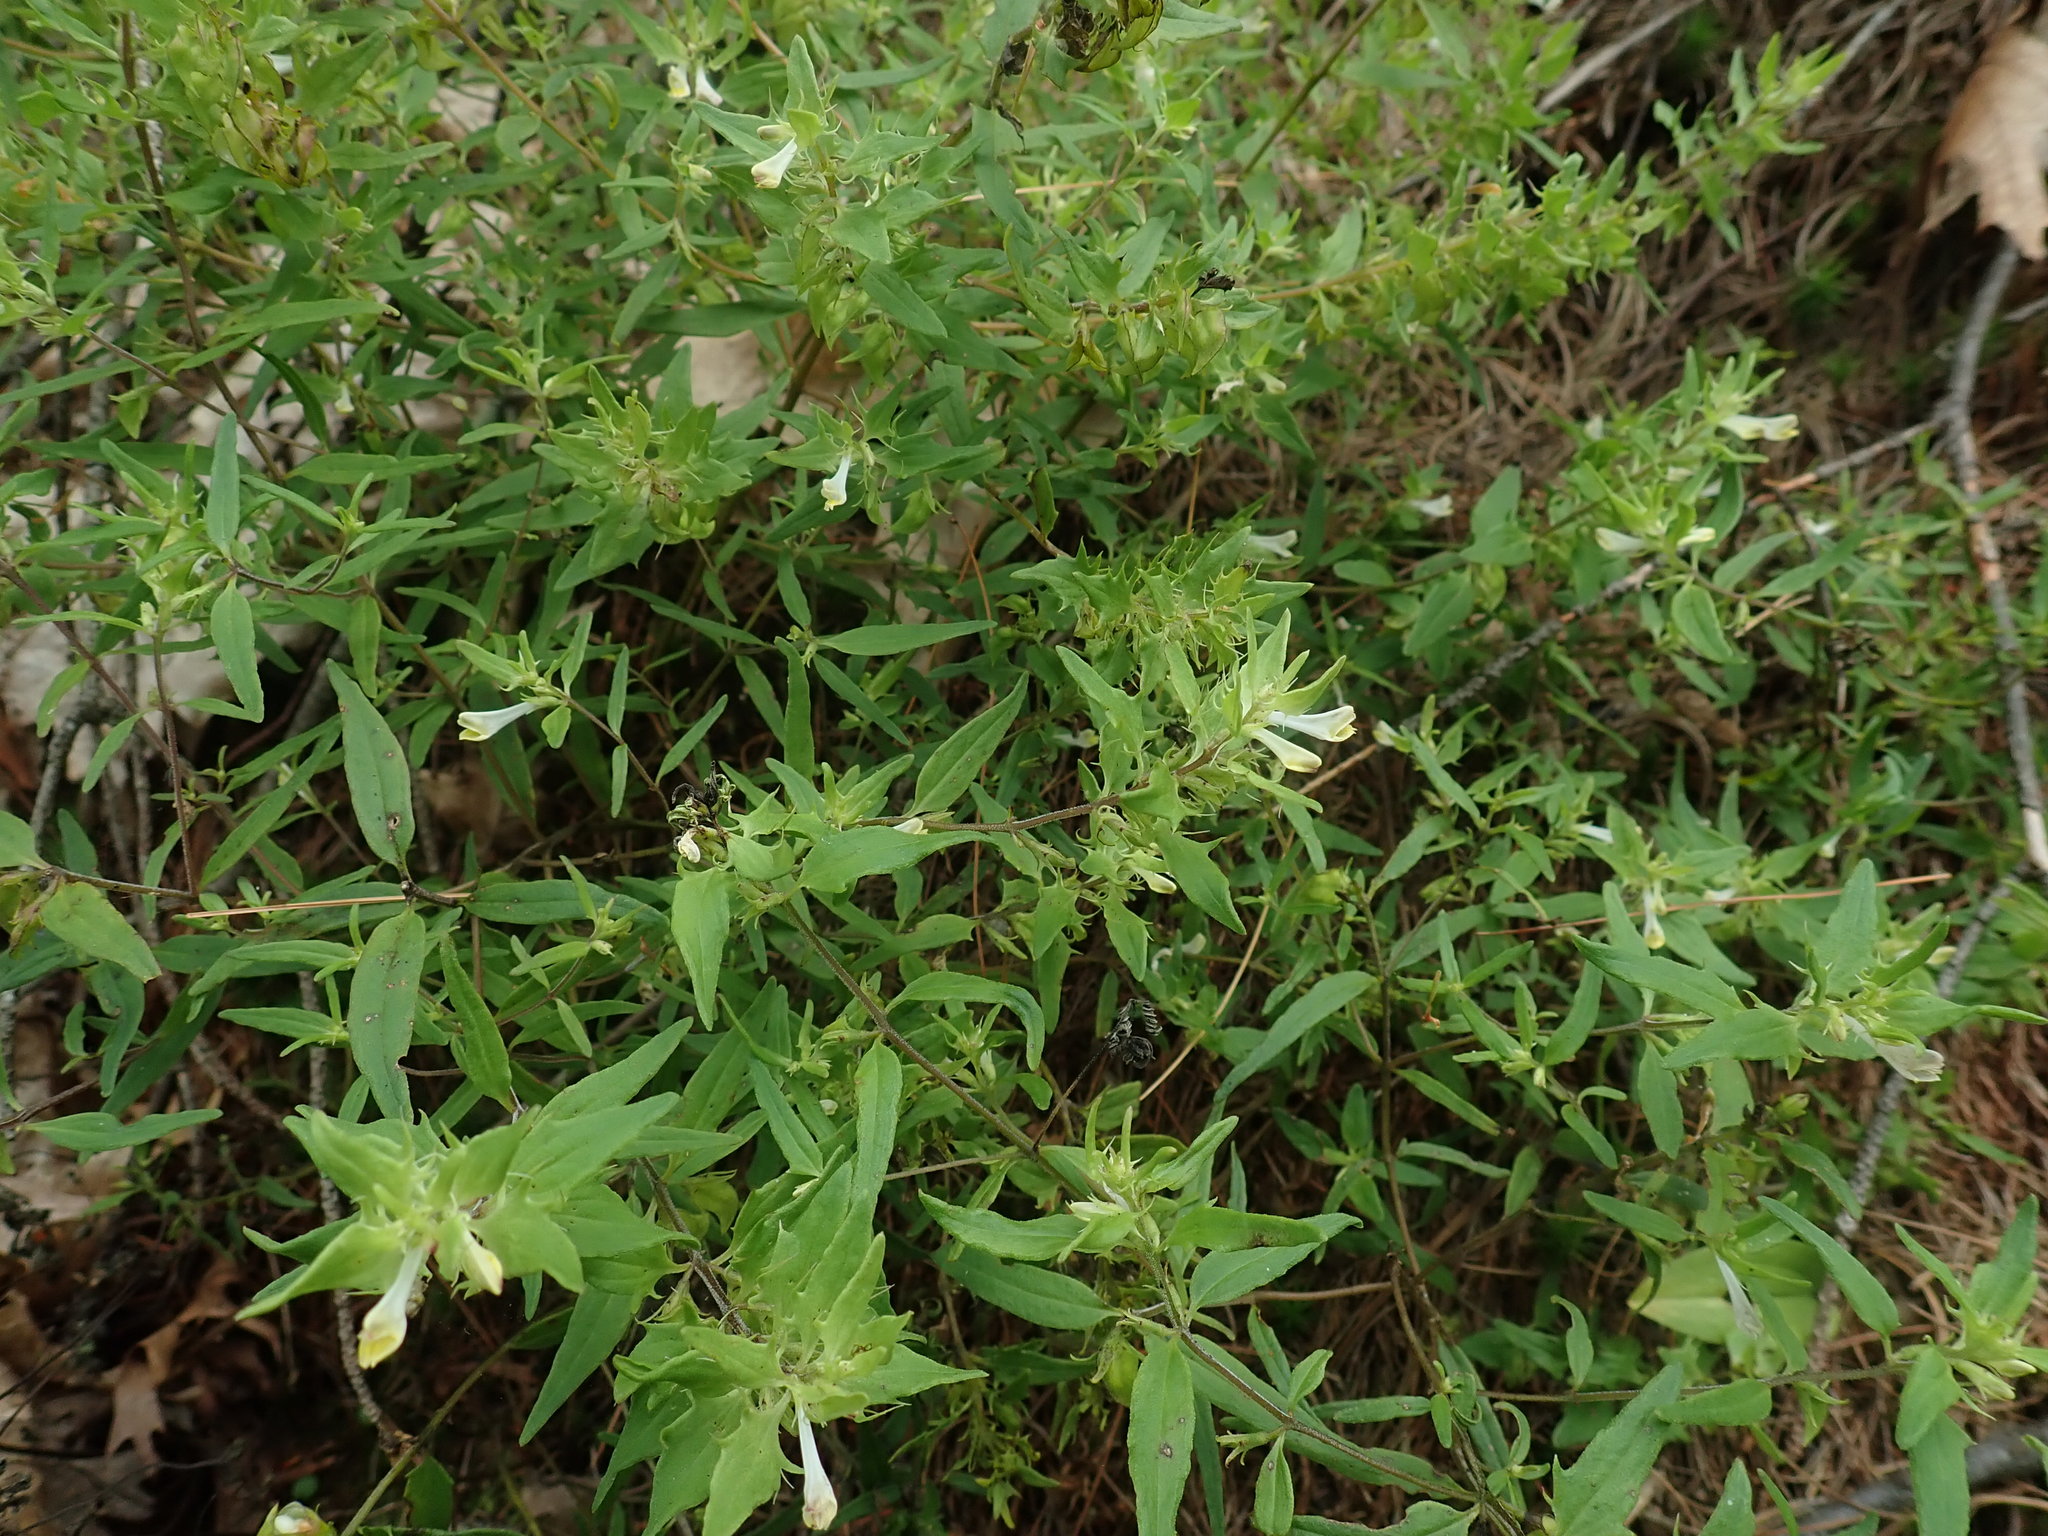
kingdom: Plantae
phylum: Tracheophyta
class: Magnoliopsida
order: Lamiales
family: Orobanchaceae
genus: Melampyrum
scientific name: Melampyrum lineare
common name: American cow-wheat
